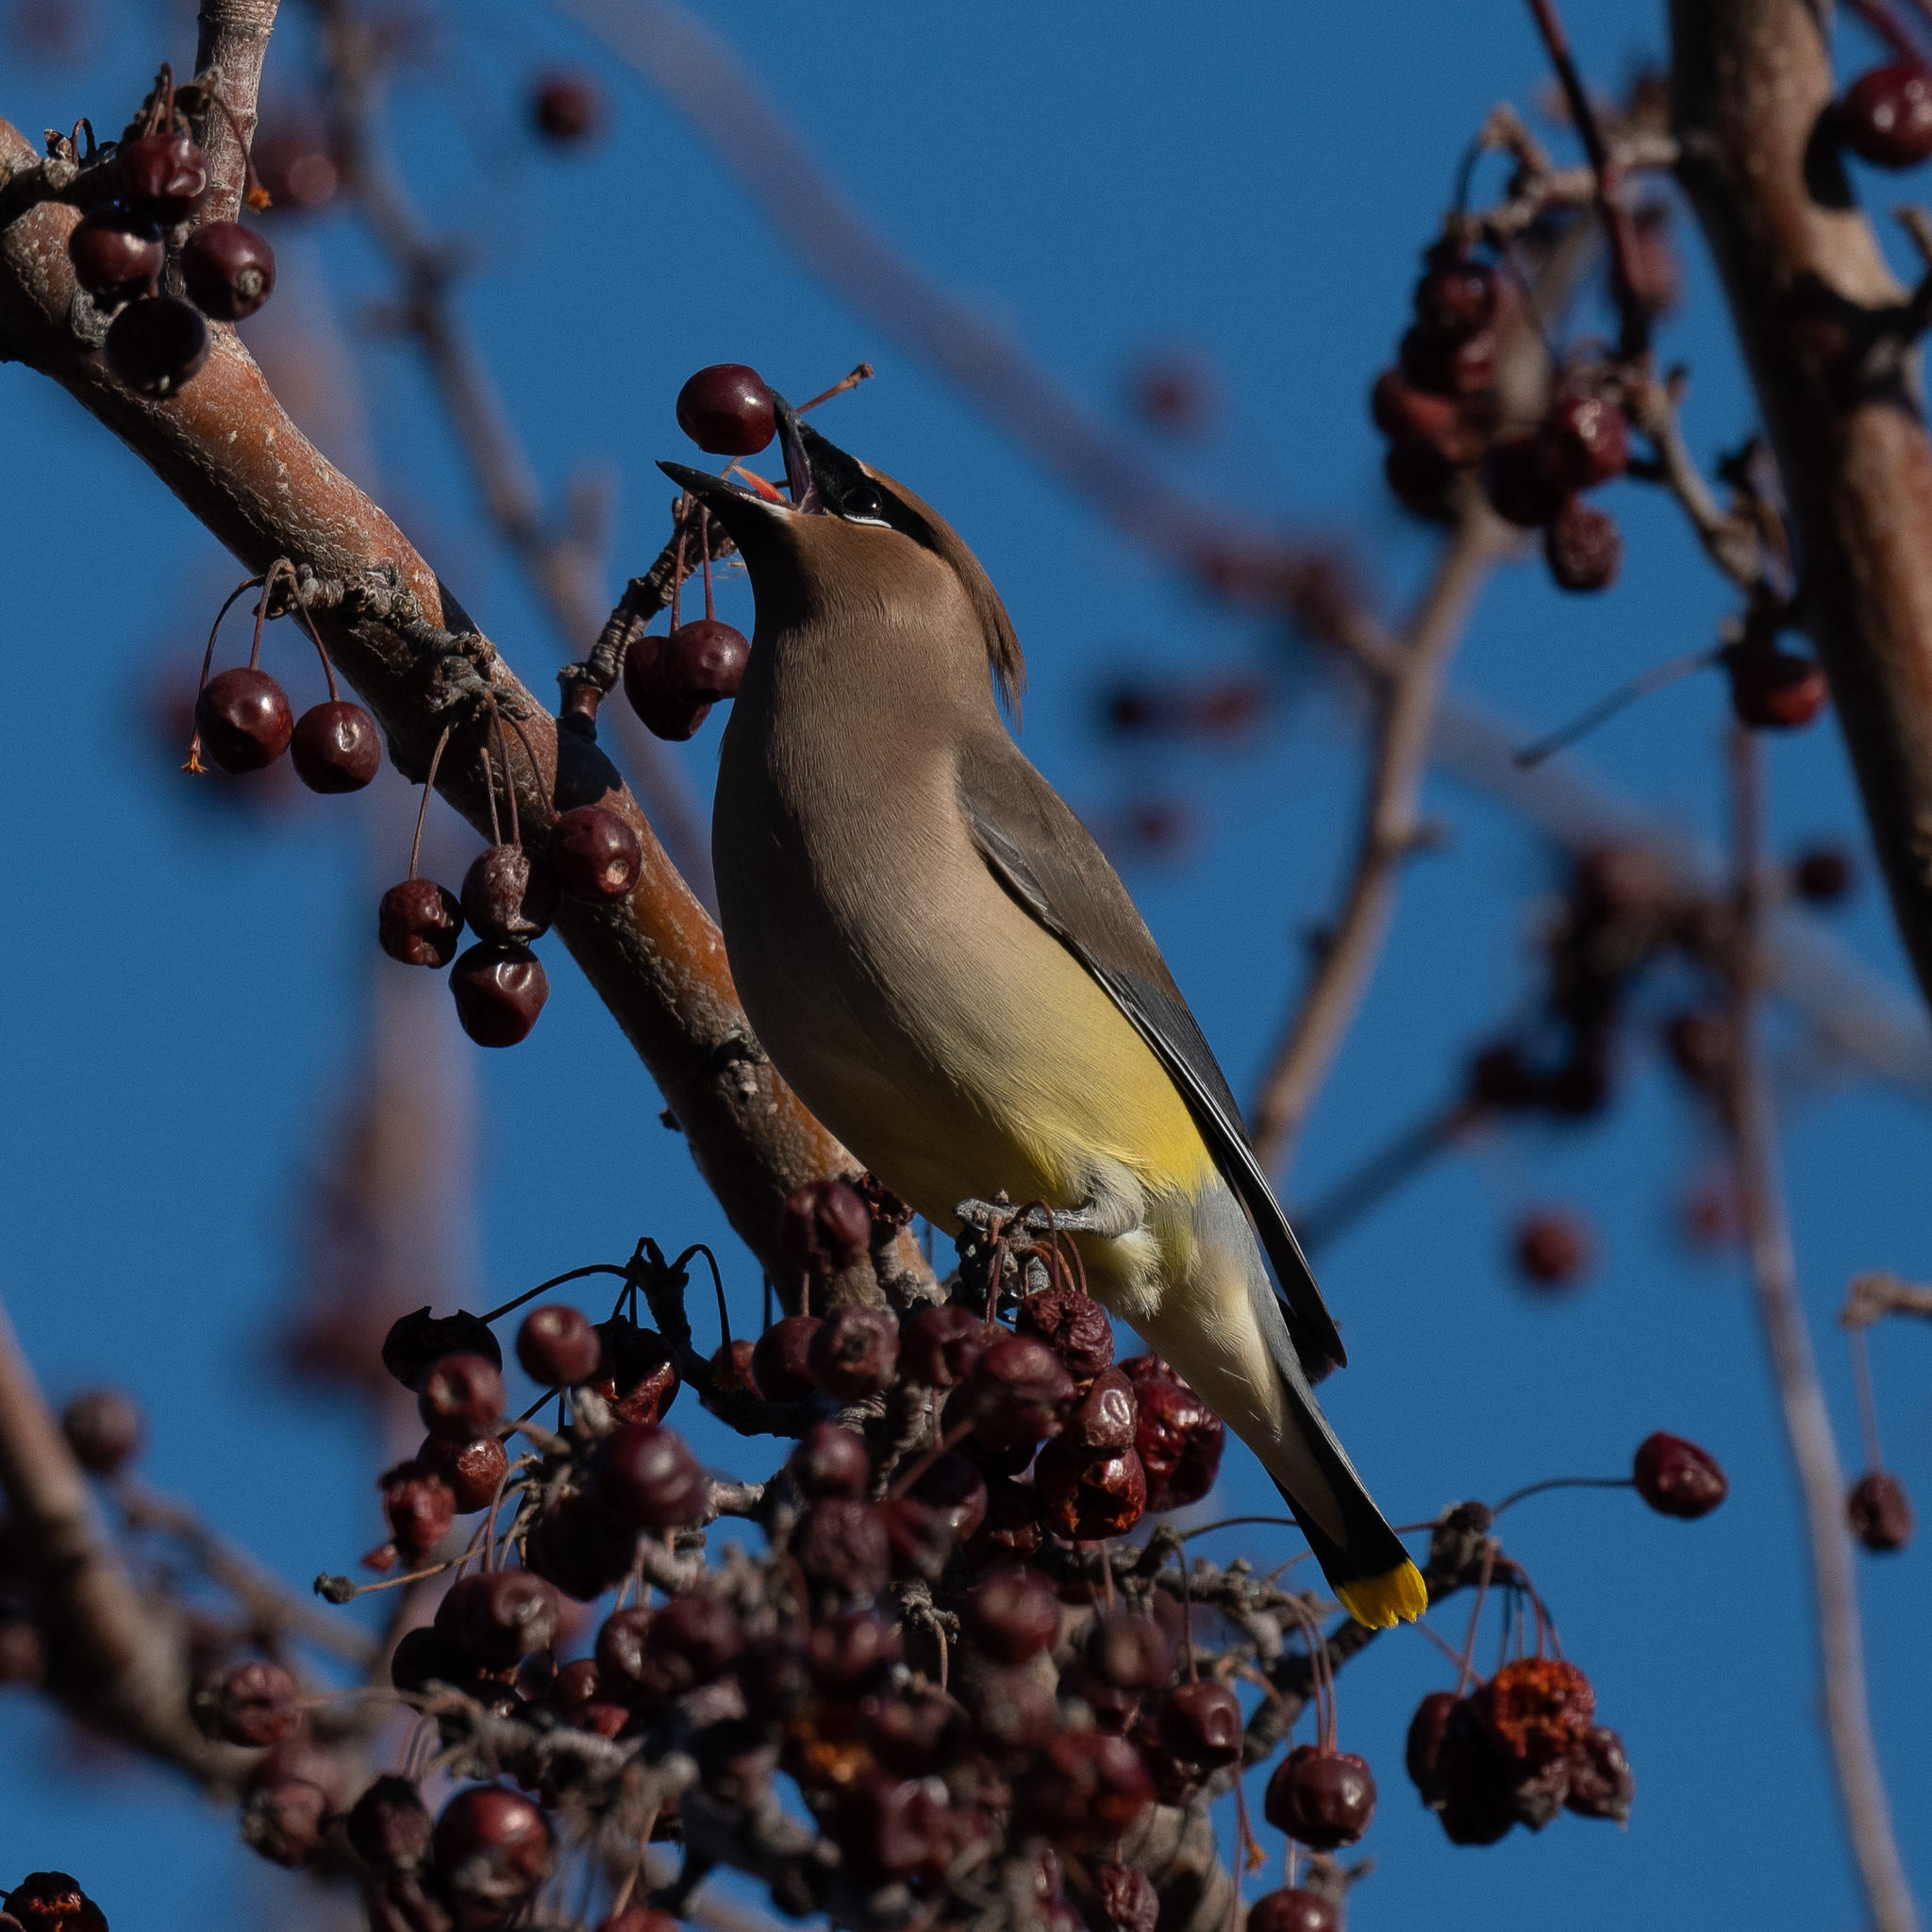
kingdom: Animalia
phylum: Chordata
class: Aves
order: Passeriformes
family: Bombycillidae
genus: Bombycilla
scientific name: Bombycilla cedrorum
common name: Cedar waxwing
